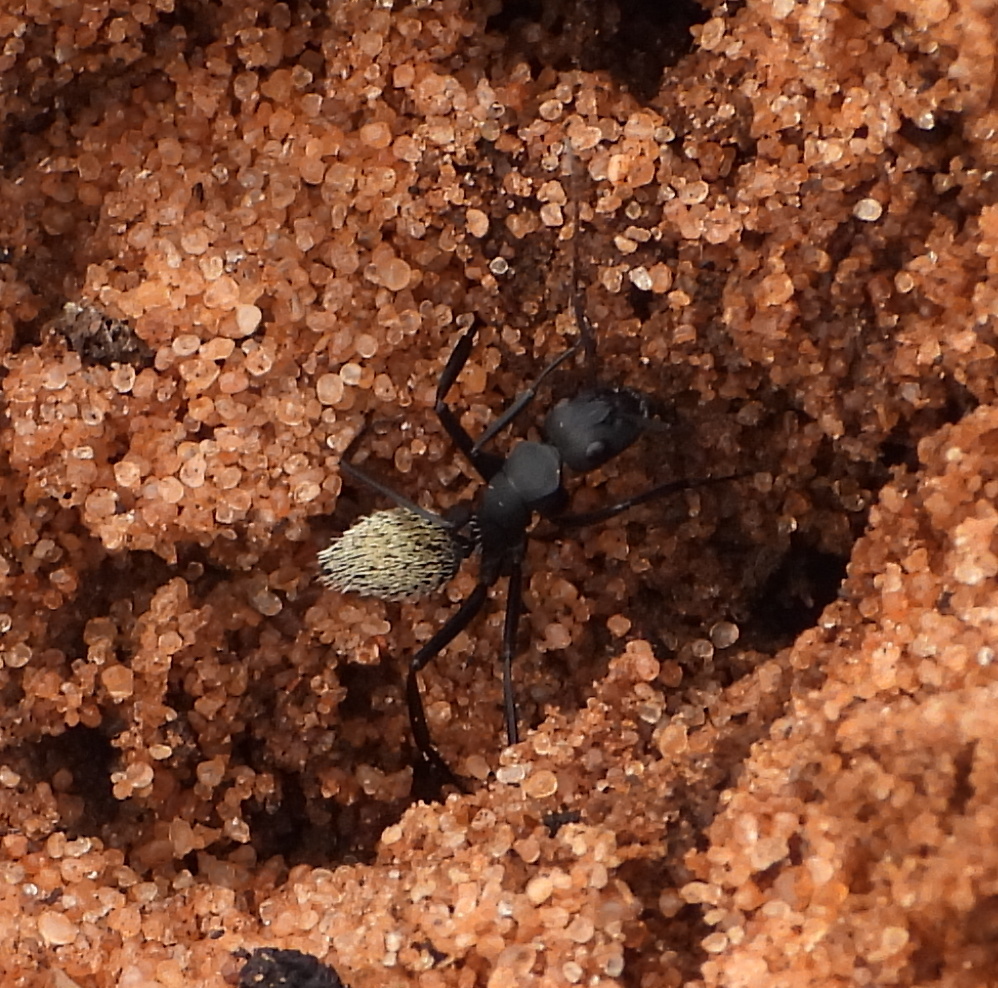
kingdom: Animalia
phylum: Arthropoda
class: Insecta
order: Hymenoptera
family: Formicidae
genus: Camponotus
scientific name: Camponotus fulvopilosus
